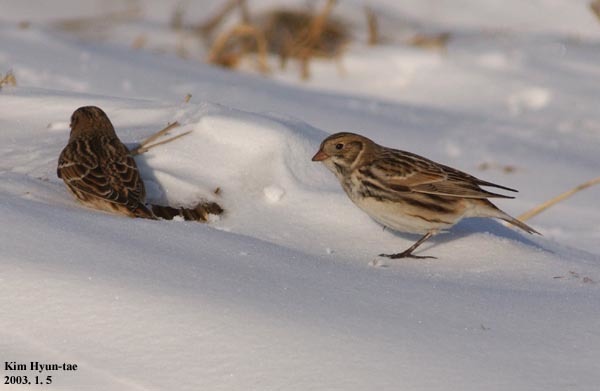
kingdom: Animalia
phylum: Chordata
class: Aves
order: Passeriformes
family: Calcariidae
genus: Calcarius
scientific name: Calcarius lapponicus
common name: Lapland longspur
